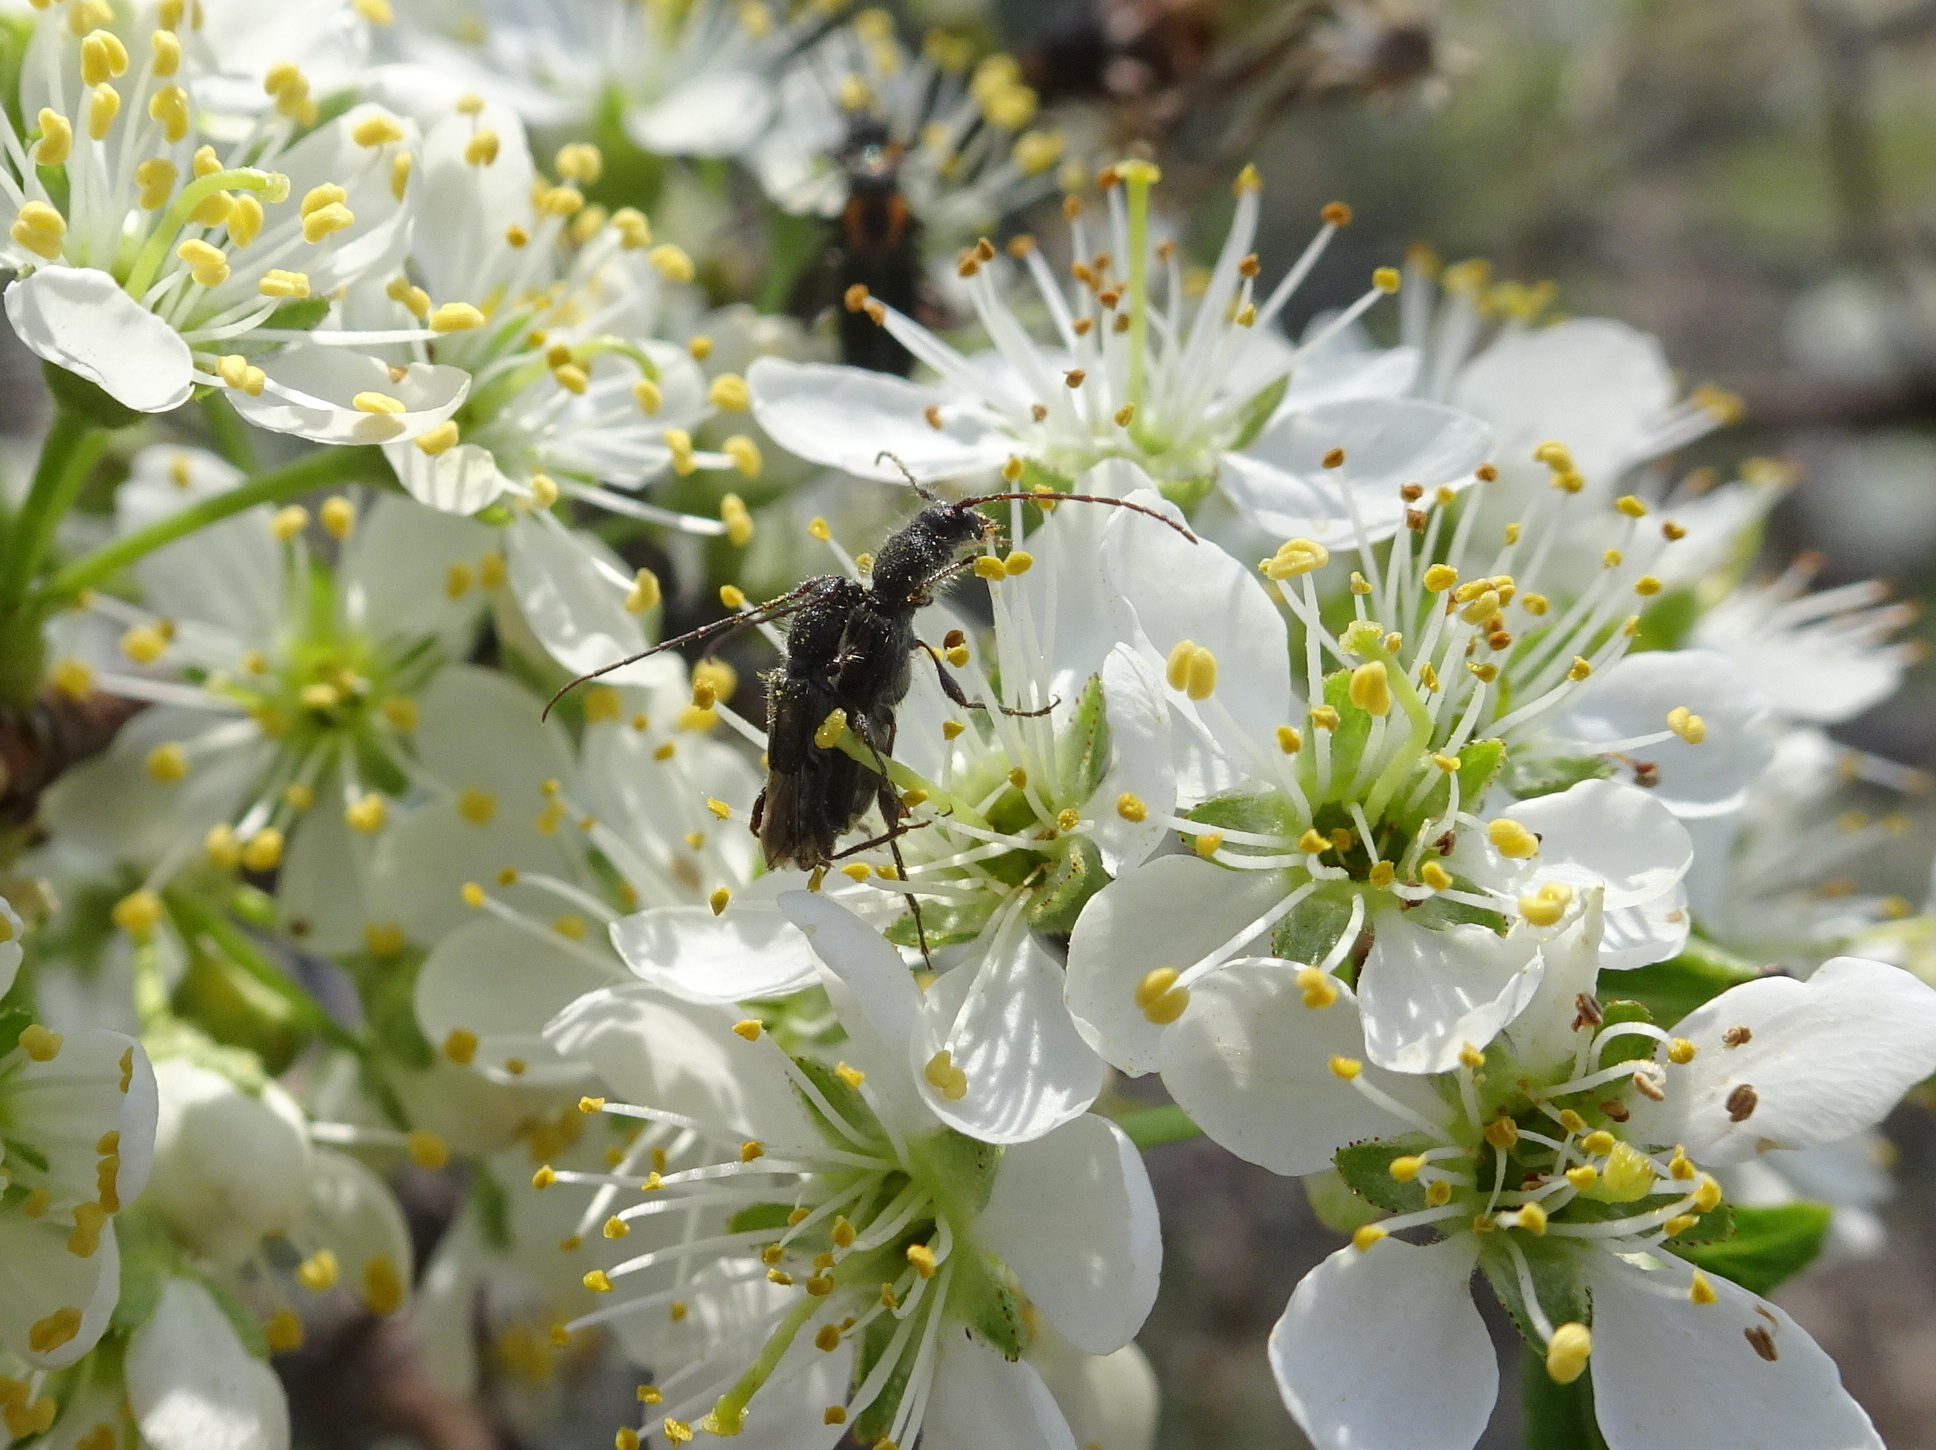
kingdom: Animalia
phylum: Arthropoda
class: Insecta
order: Coleoptera
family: Cerambycidae
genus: Molorchus
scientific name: Molorchus bimaculatus
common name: Bimaculate longhorn beetle
